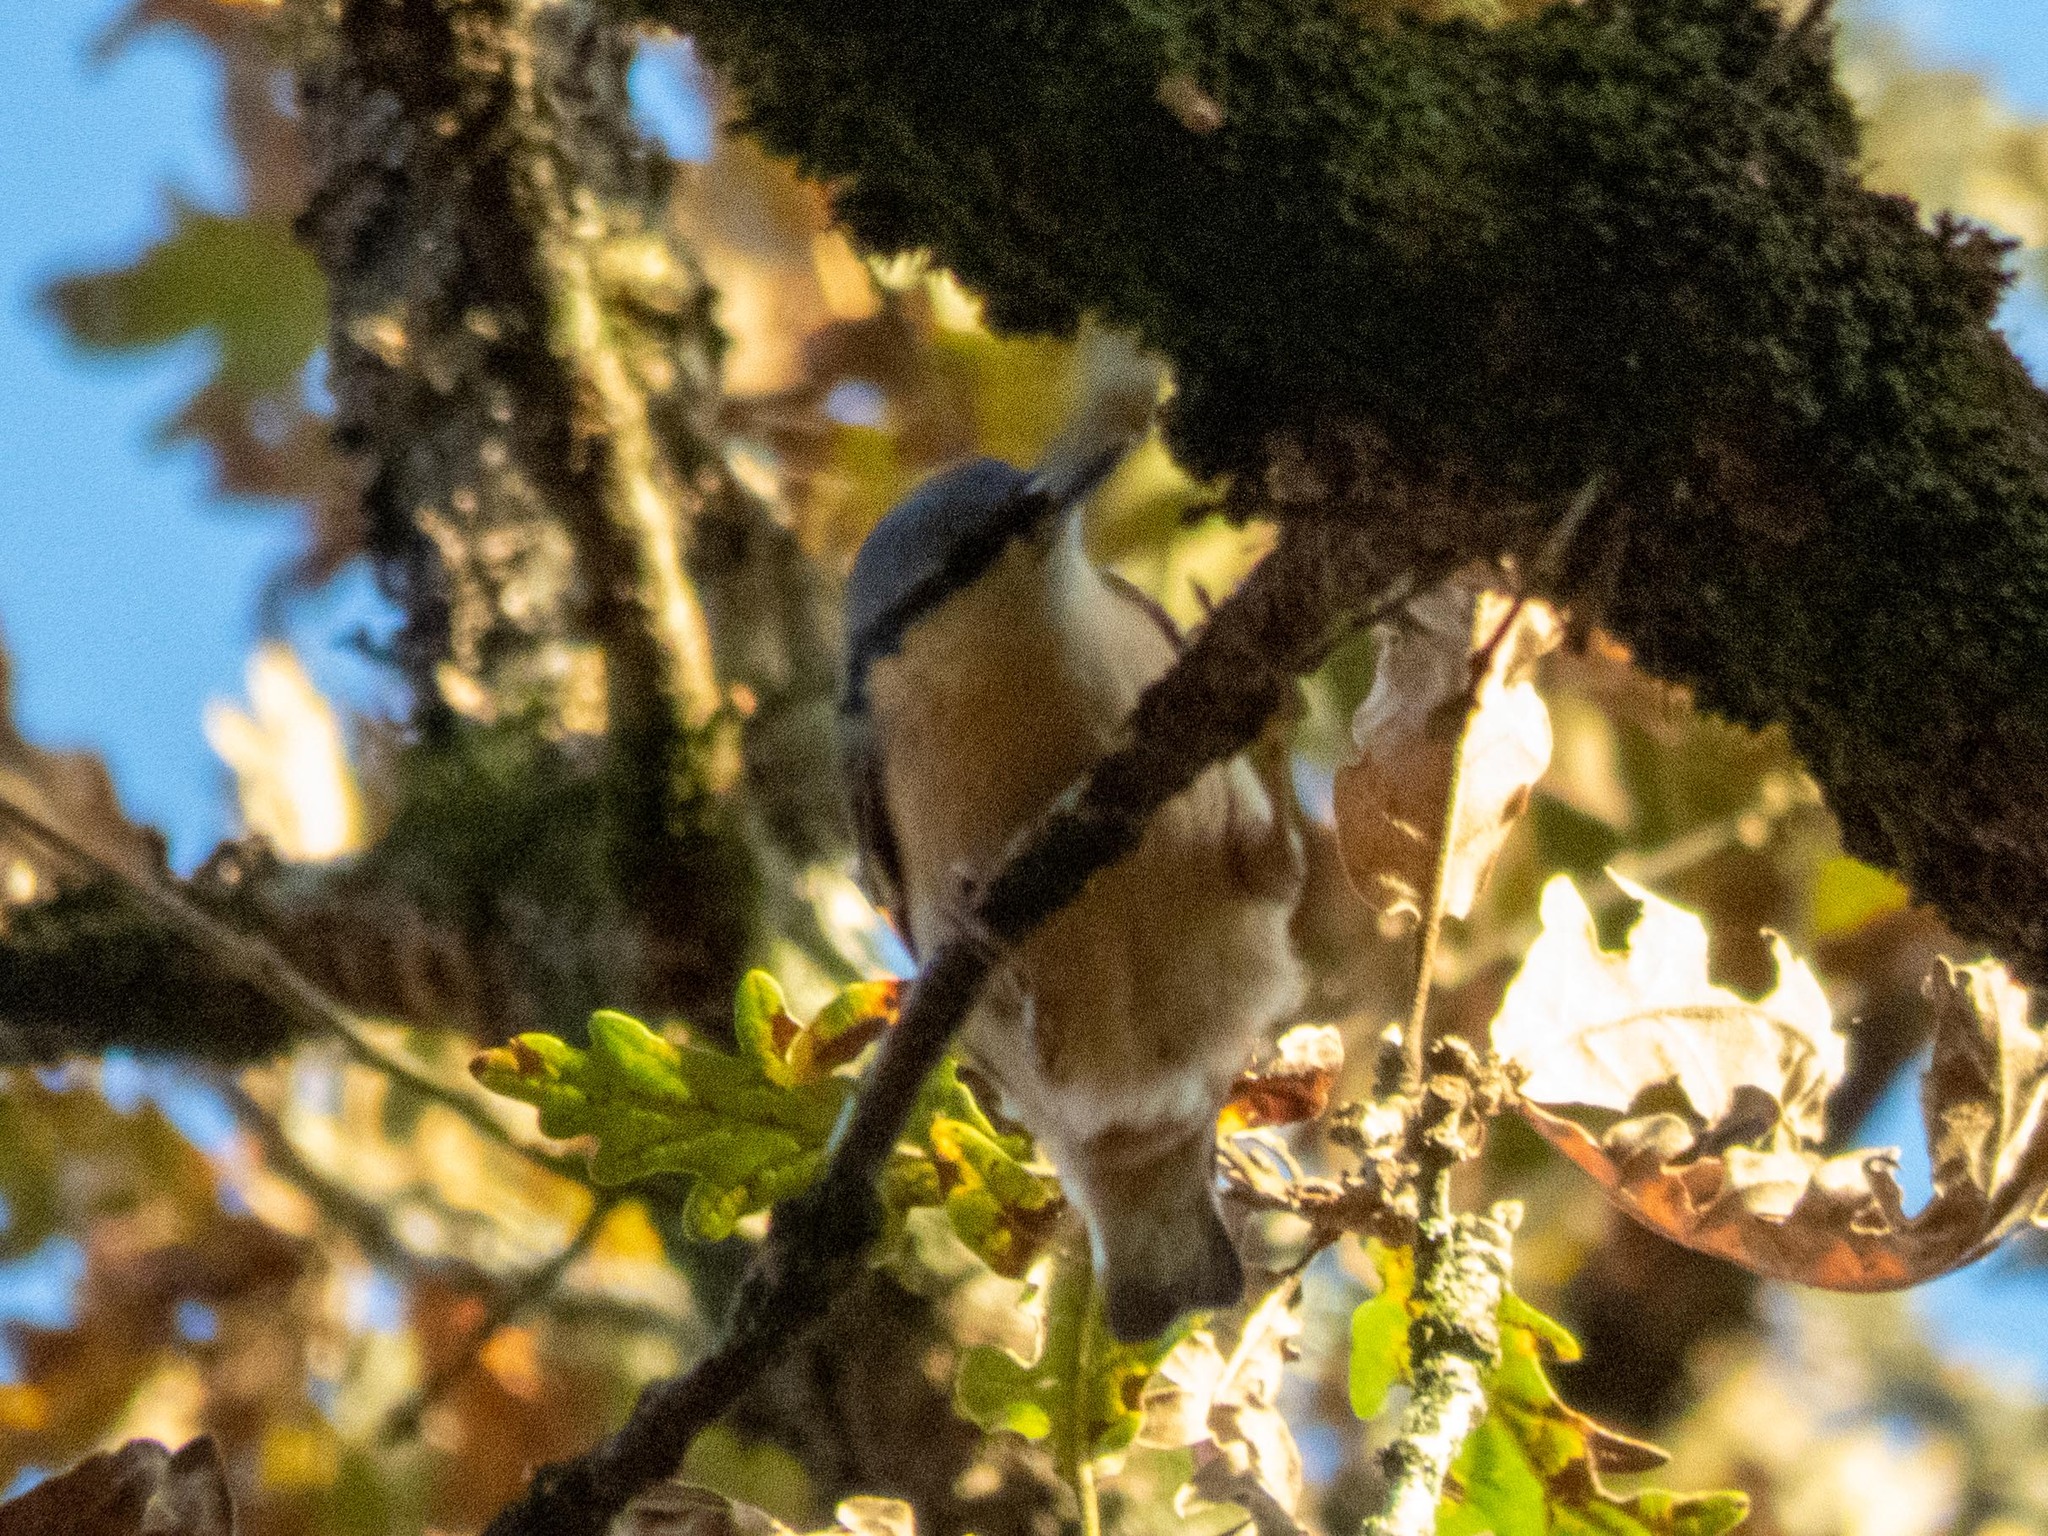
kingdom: Animalia
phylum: Chordata
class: Aves
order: Passeriformes
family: Sittidae
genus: Sitta
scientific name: Sitta europaea
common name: Eurasian nuthatch
